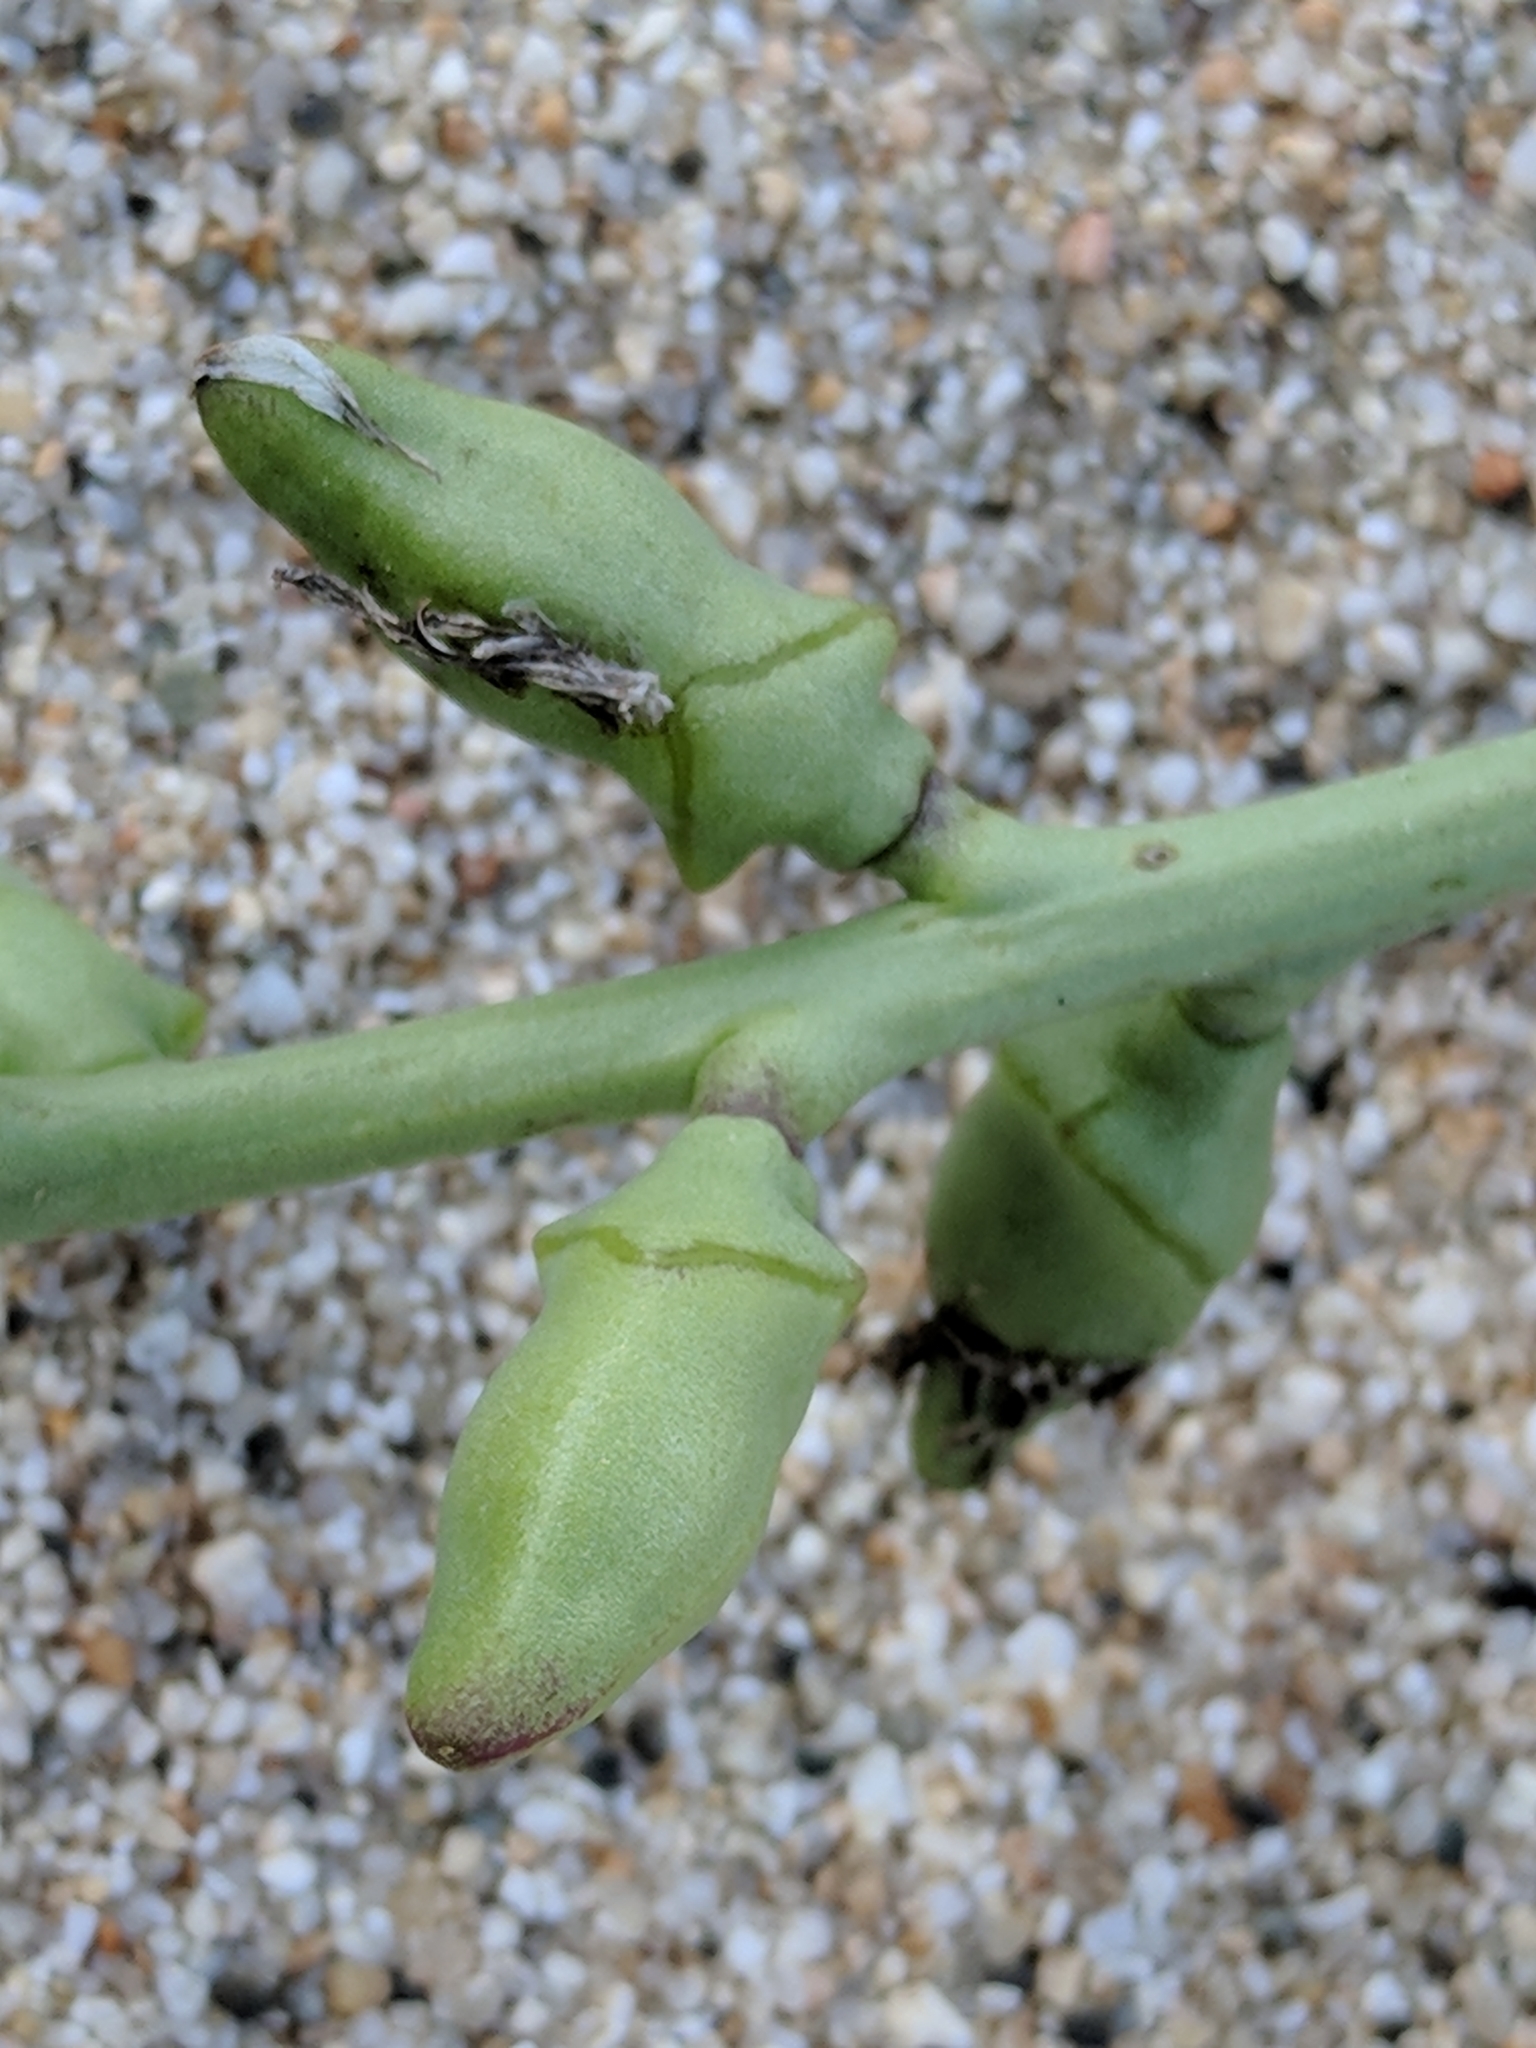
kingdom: Plantae
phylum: Tracheophyta
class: Magnoliopsida
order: Brassicales
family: Brassicaceae
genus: Cakile
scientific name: Cakile maritima
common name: Sea rocket
